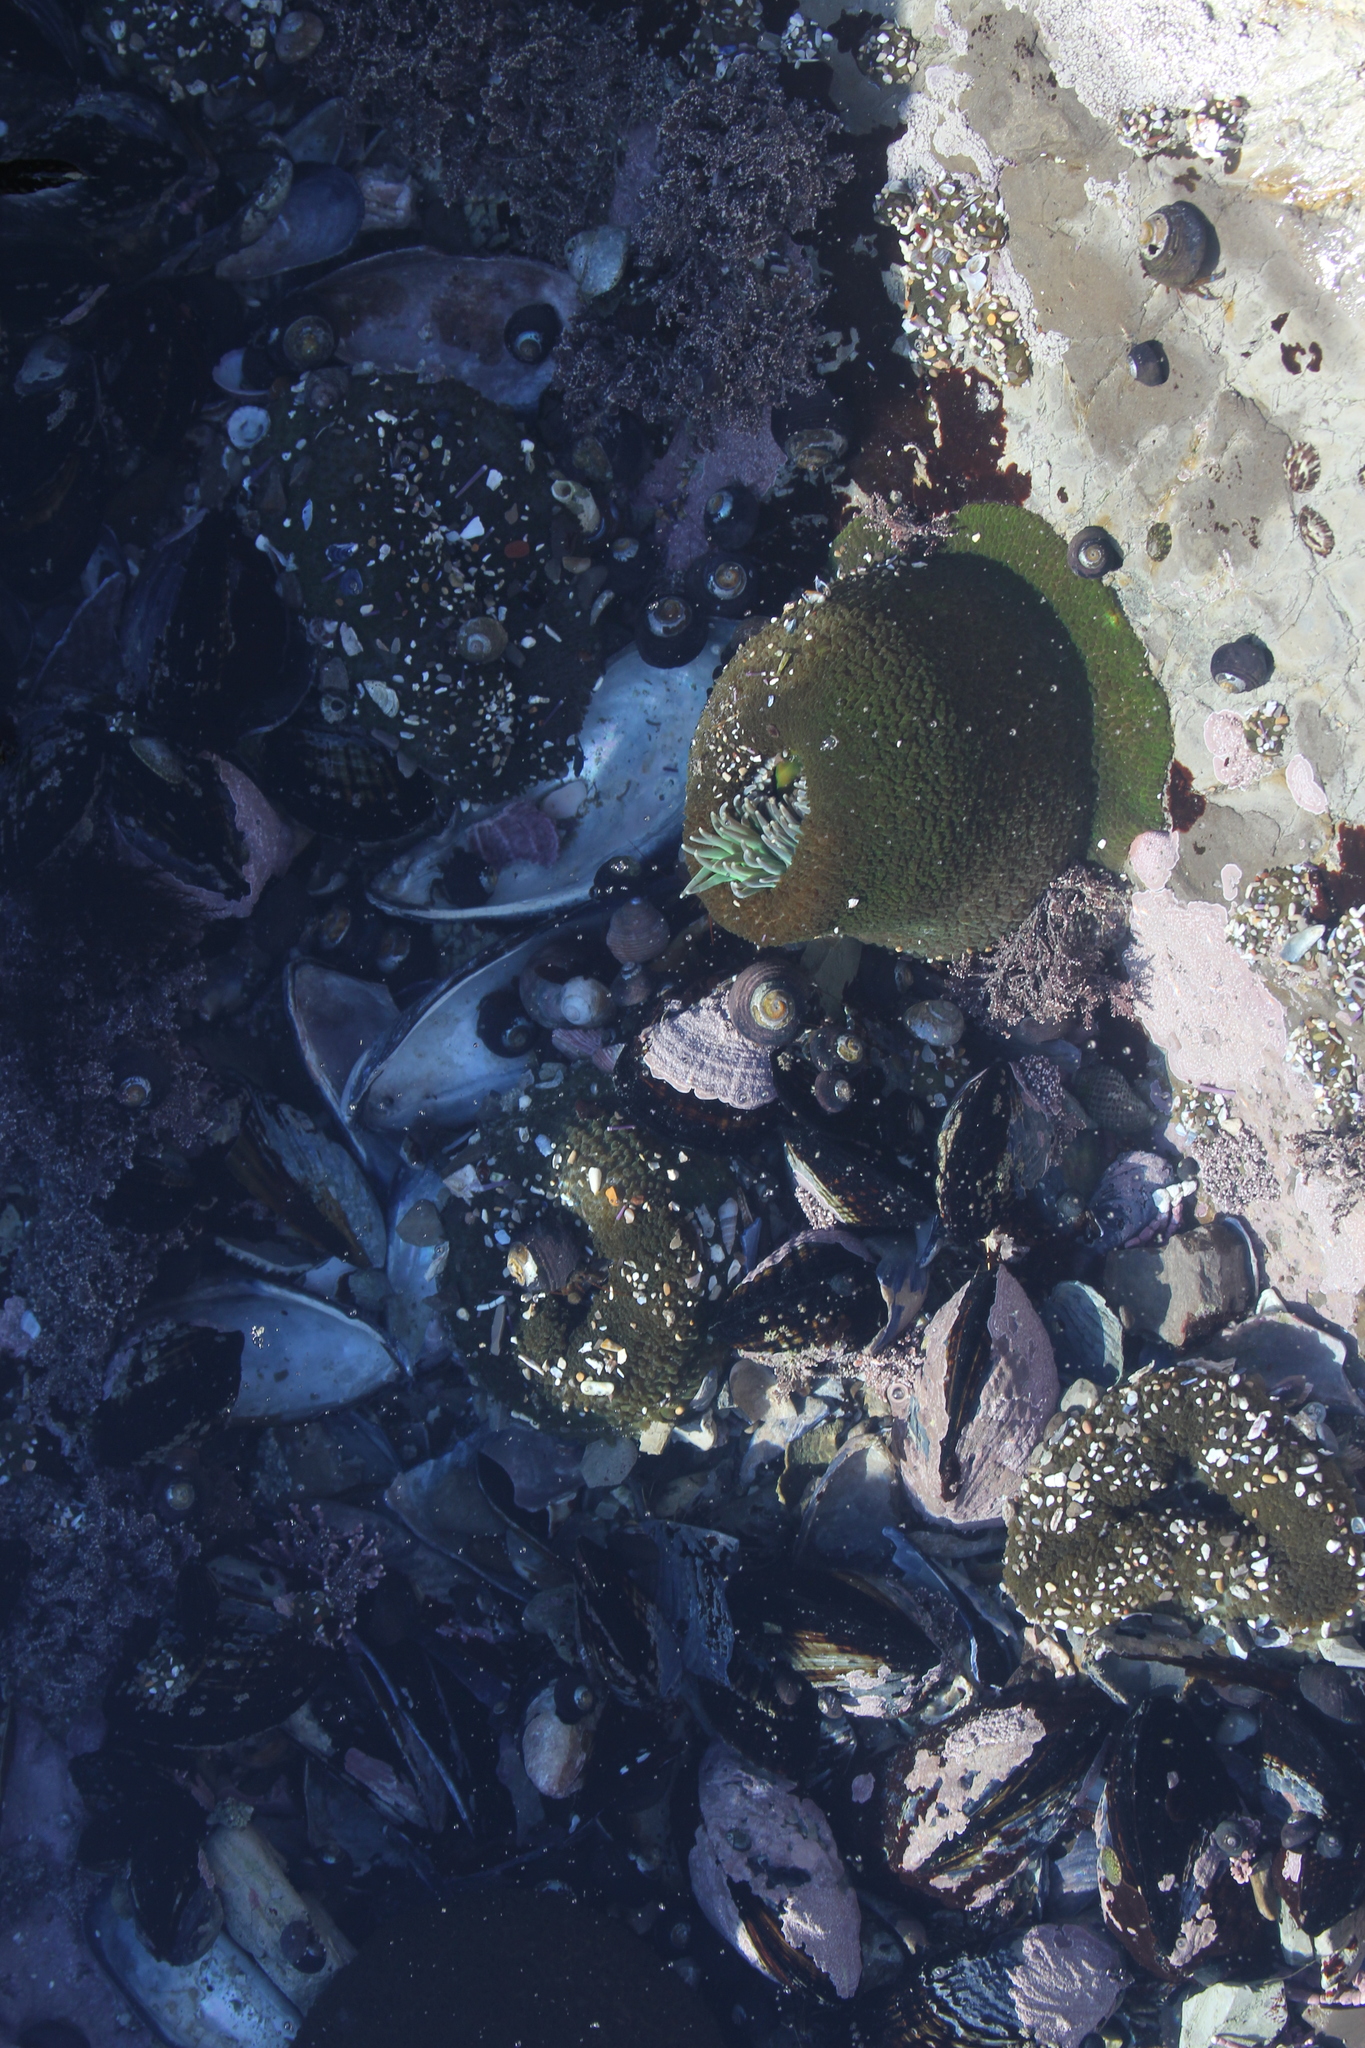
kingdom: Animalia
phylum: Cnidaria
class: Anthozoa
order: Actiniaria
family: Actiniidae
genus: Anthopleura
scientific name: Anthopleura xanthogrammica
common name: Giant green anemone
